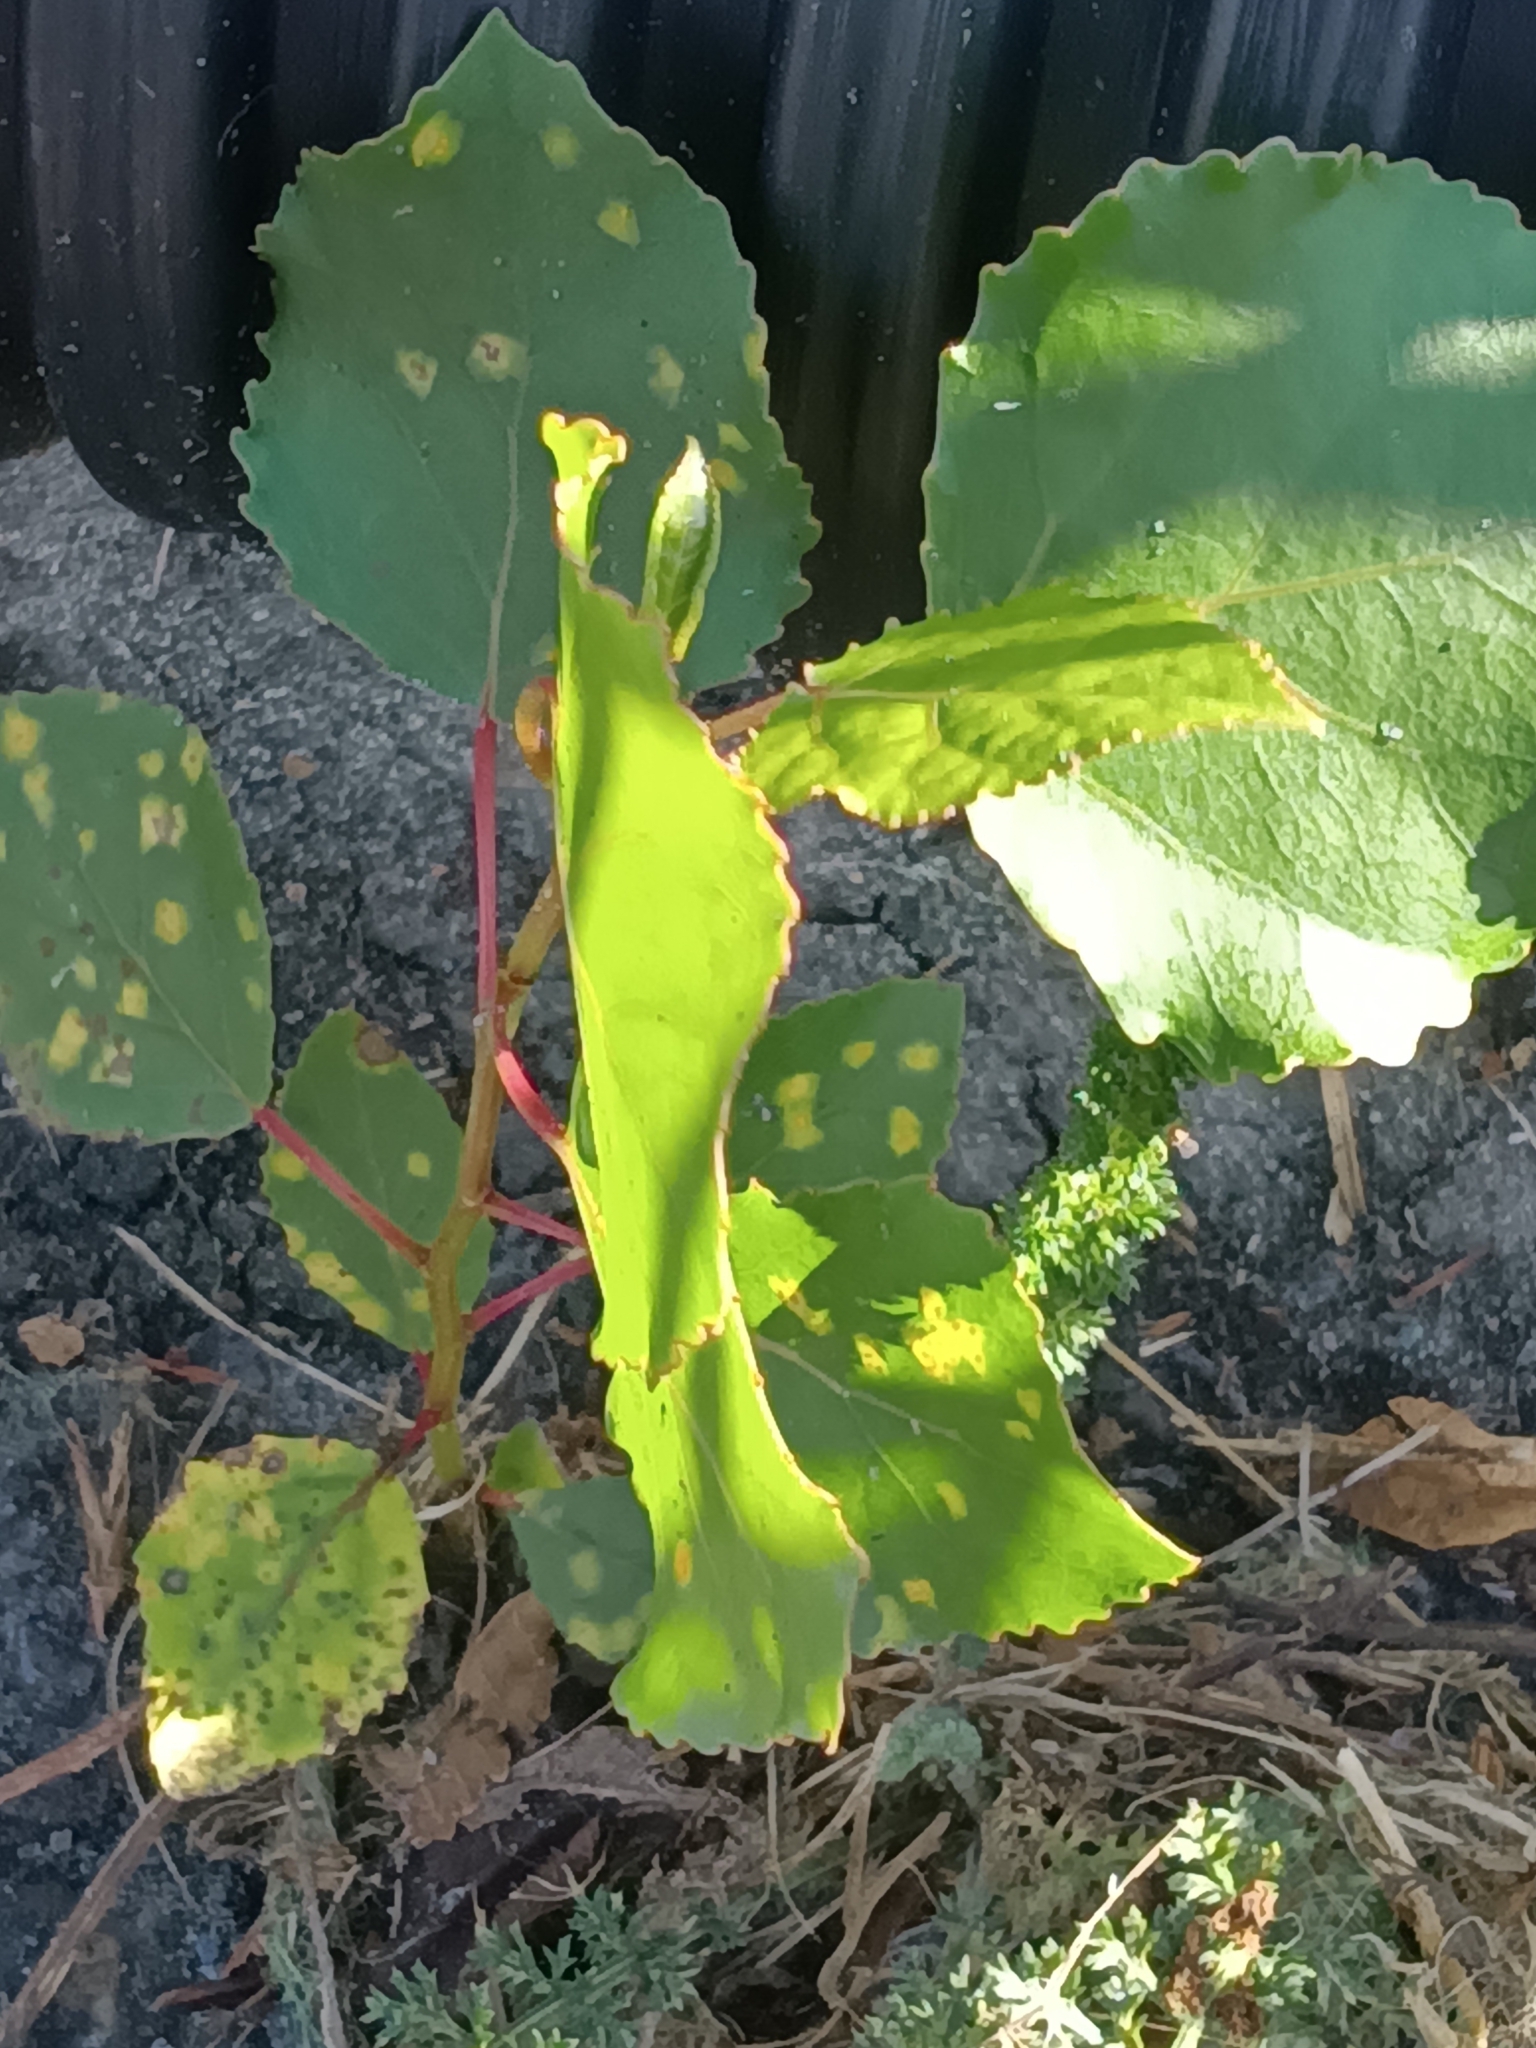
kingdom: Plantae
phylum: Tracheophyta
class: Magnoliopsida
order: Malpighiales
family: Salicaceae
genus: Populus
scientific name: Populus deltoides
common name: Eastern cottonwood
